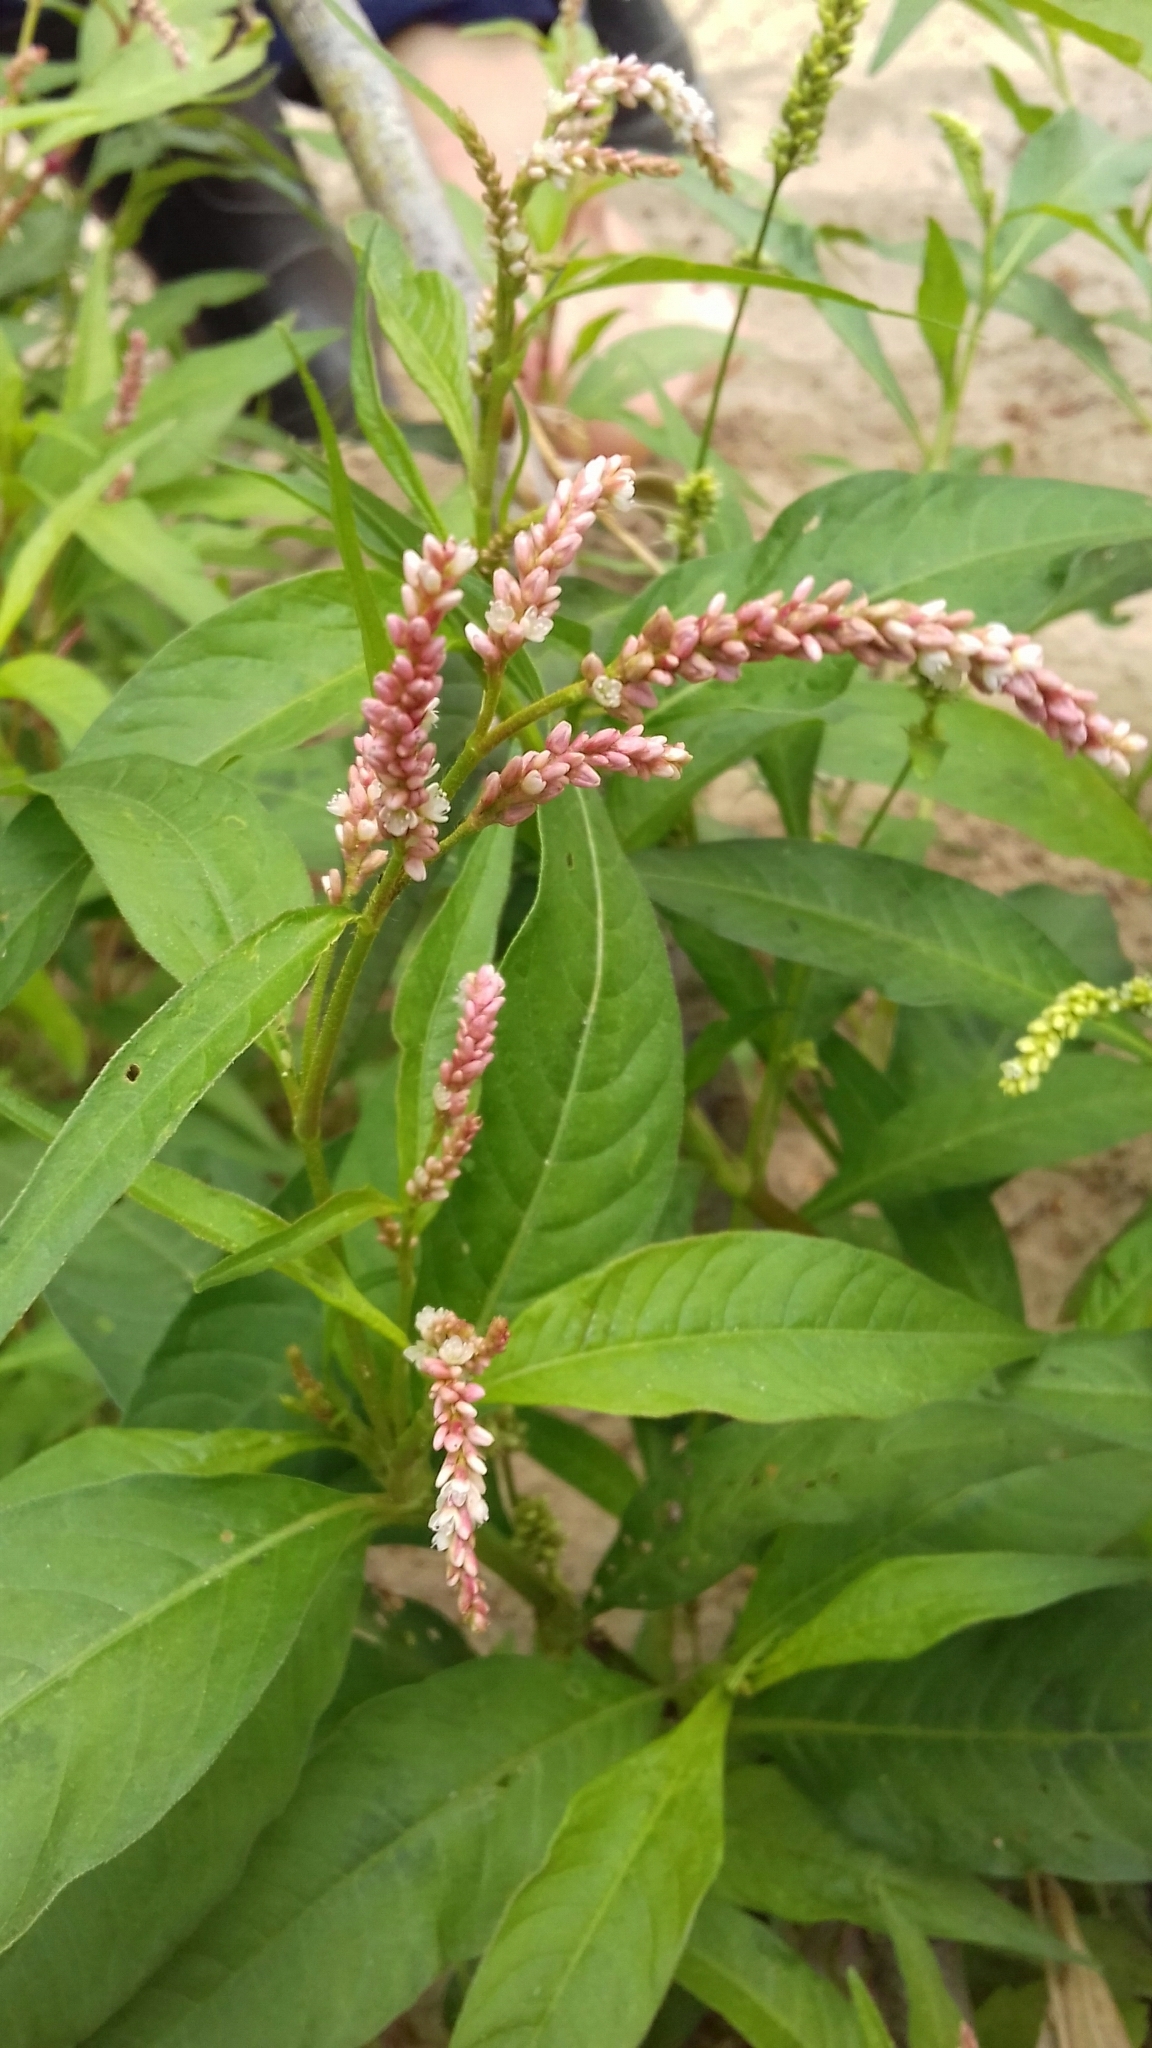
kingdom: Plantae
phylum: Tracheophyta
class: Magnoliopsida
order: Caryophyllales
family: Polygonaceae
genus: Persicaria
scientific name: Persicaria lapathifolia
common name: Curlytop knotweed
